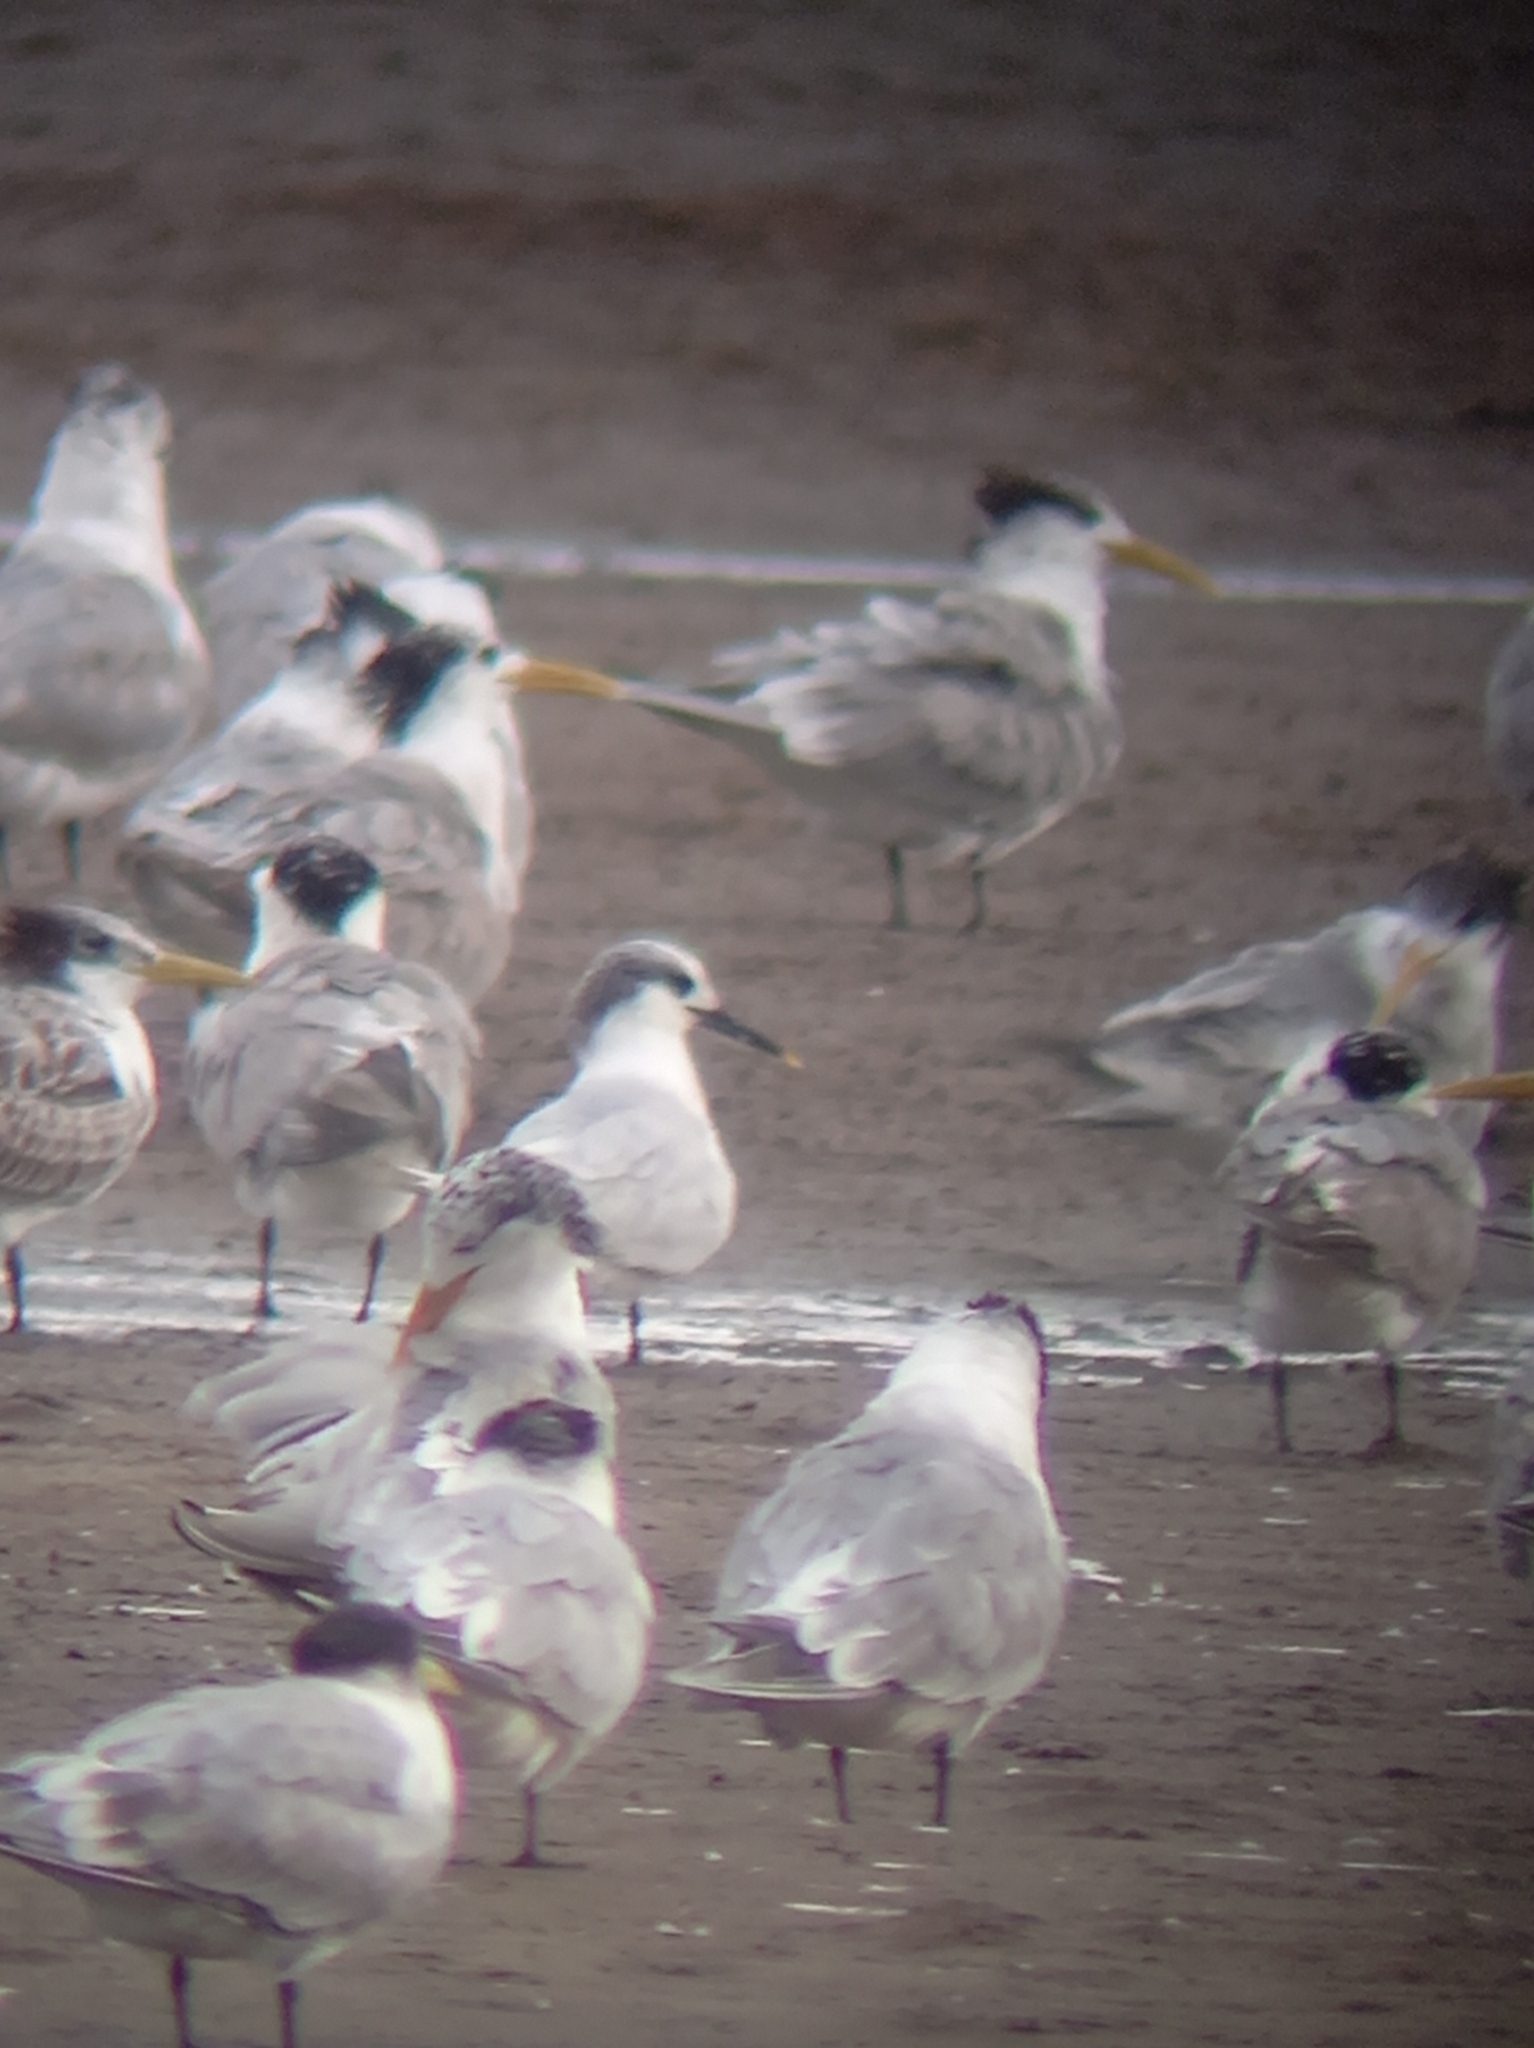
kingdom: Animalia
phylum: Chordata
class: Aves
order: Charadriiformes
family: Laridae
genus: Thalasseus
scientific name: Thalasseus sandvicensis
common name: Sandwich tern
